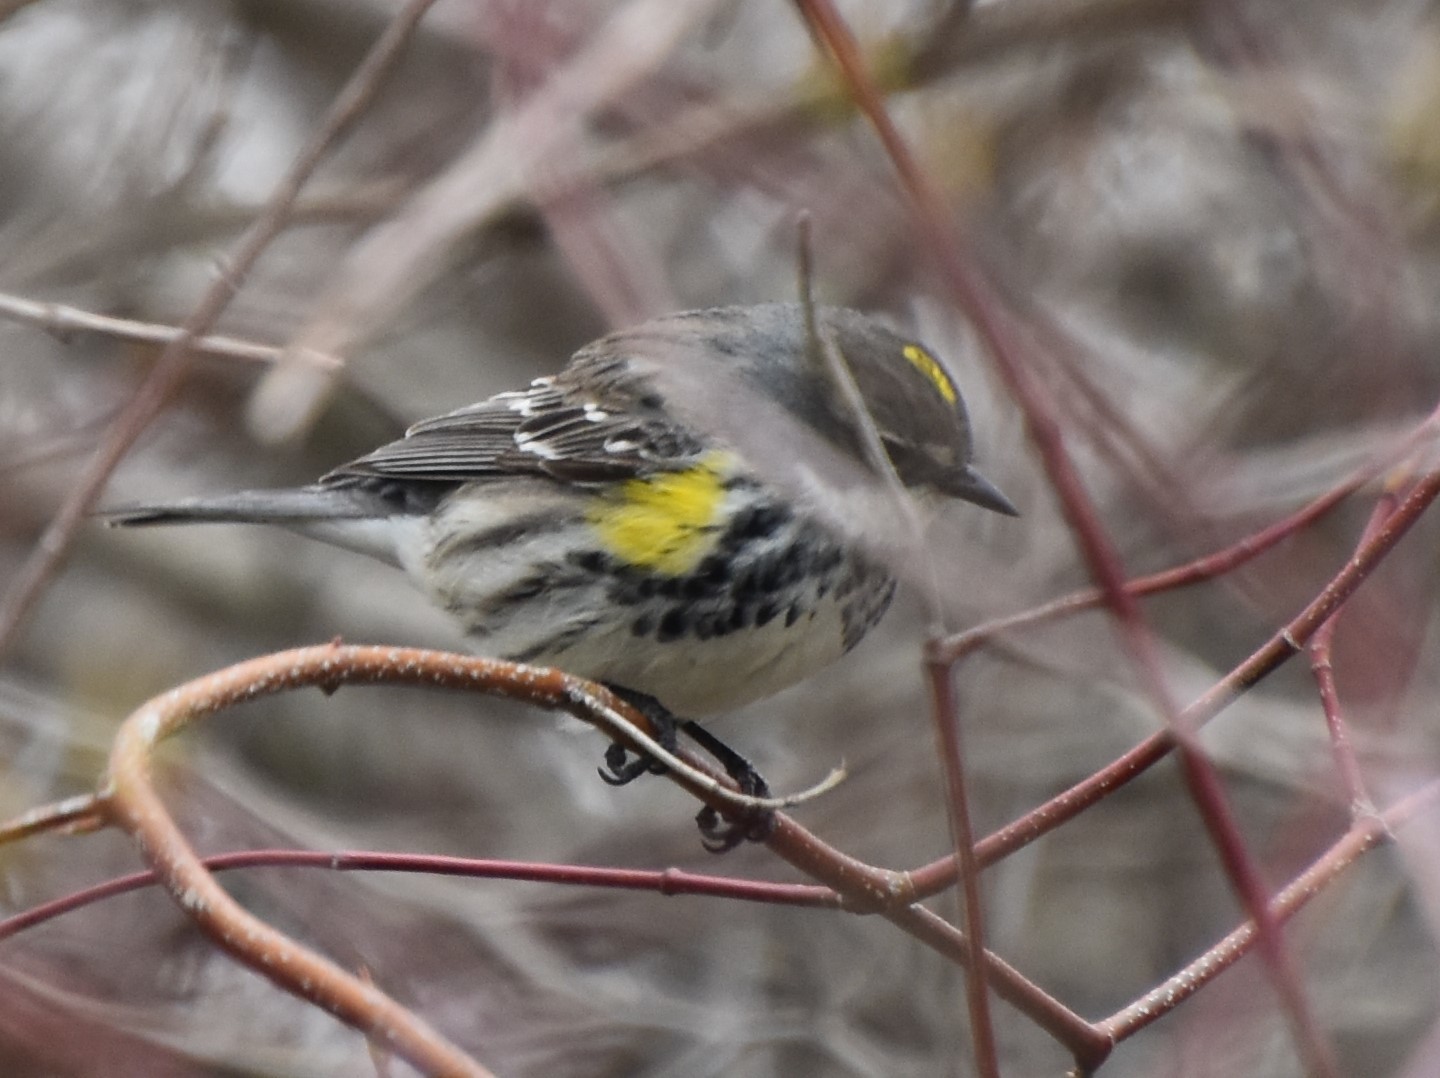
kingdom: Animalia
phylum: Chordata
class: Aves
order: Passeriformes
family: Parulidae
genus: Setophaga
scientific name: Setophaga coronata
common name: Myrtle warbler
